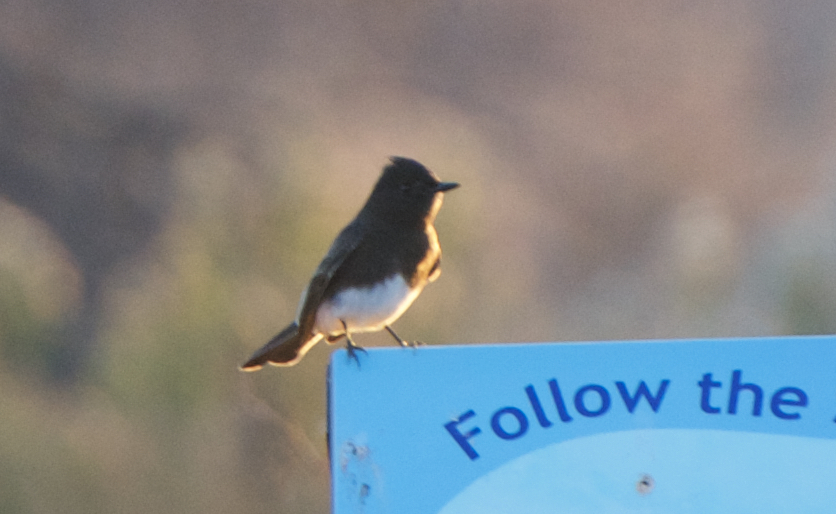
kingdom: Animalia
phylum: Chordata
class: Aves
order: Passeriformes
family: Tyrannidae
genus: Sayornis
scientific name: Sayornis nigricans
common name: Black phoebe
